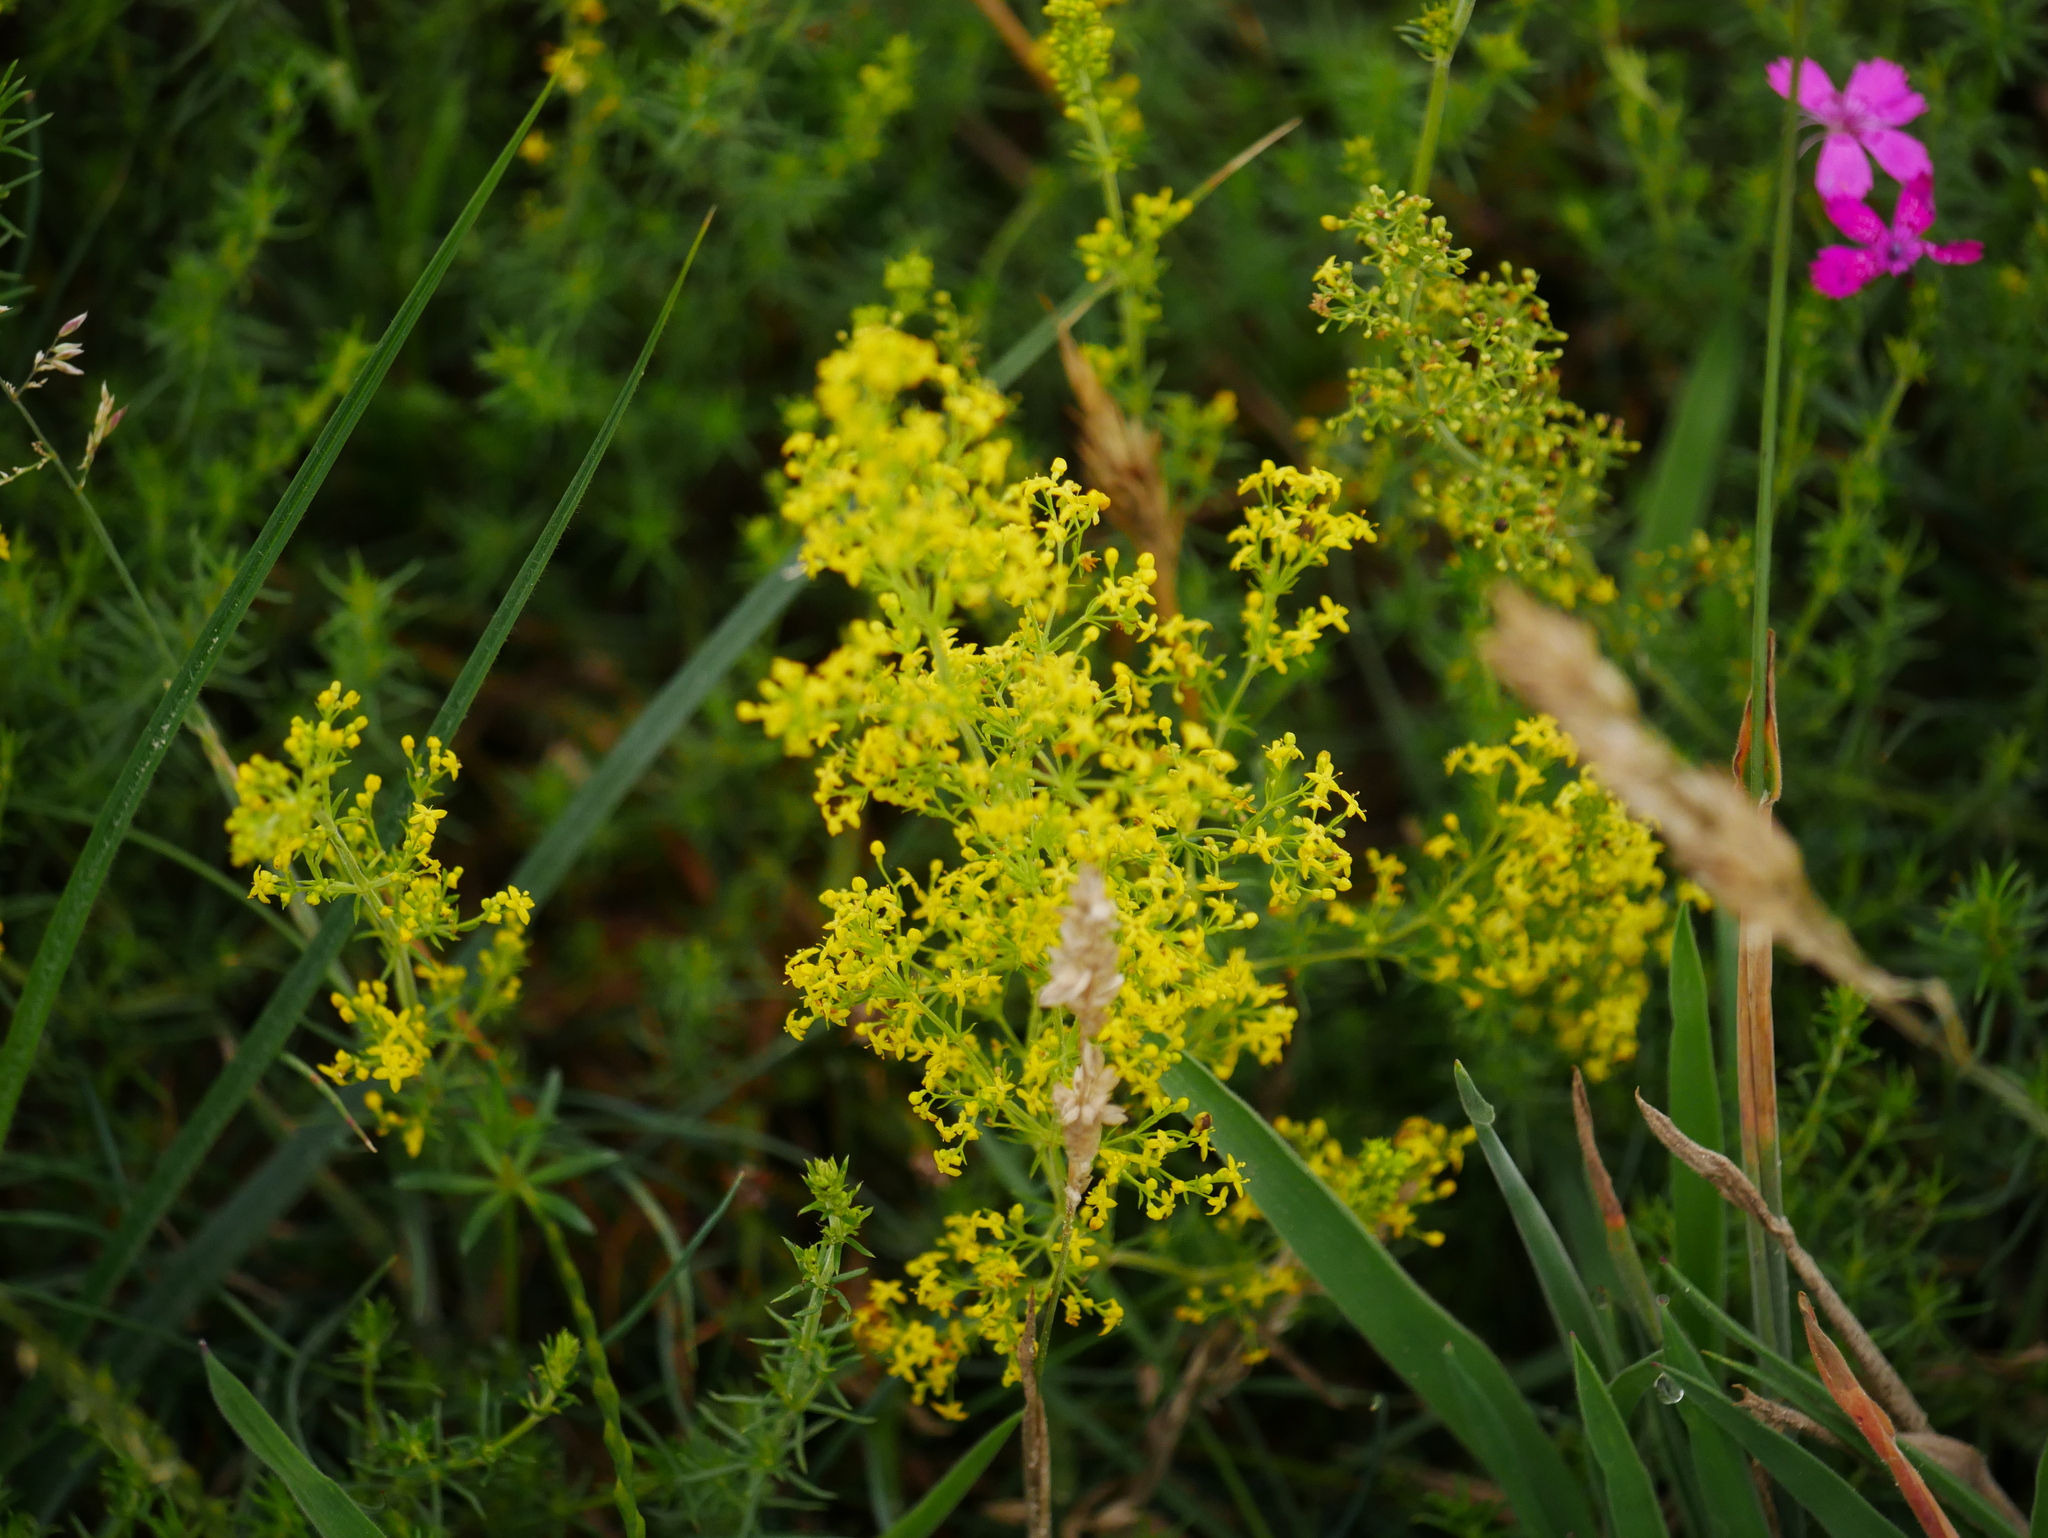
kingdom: Plantae
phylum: Tracheophyta
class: Magnoliopsida
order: Gentianales
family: Rubiaceae
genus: Galium
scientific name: Galium verum
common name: Lady's bedstraw
